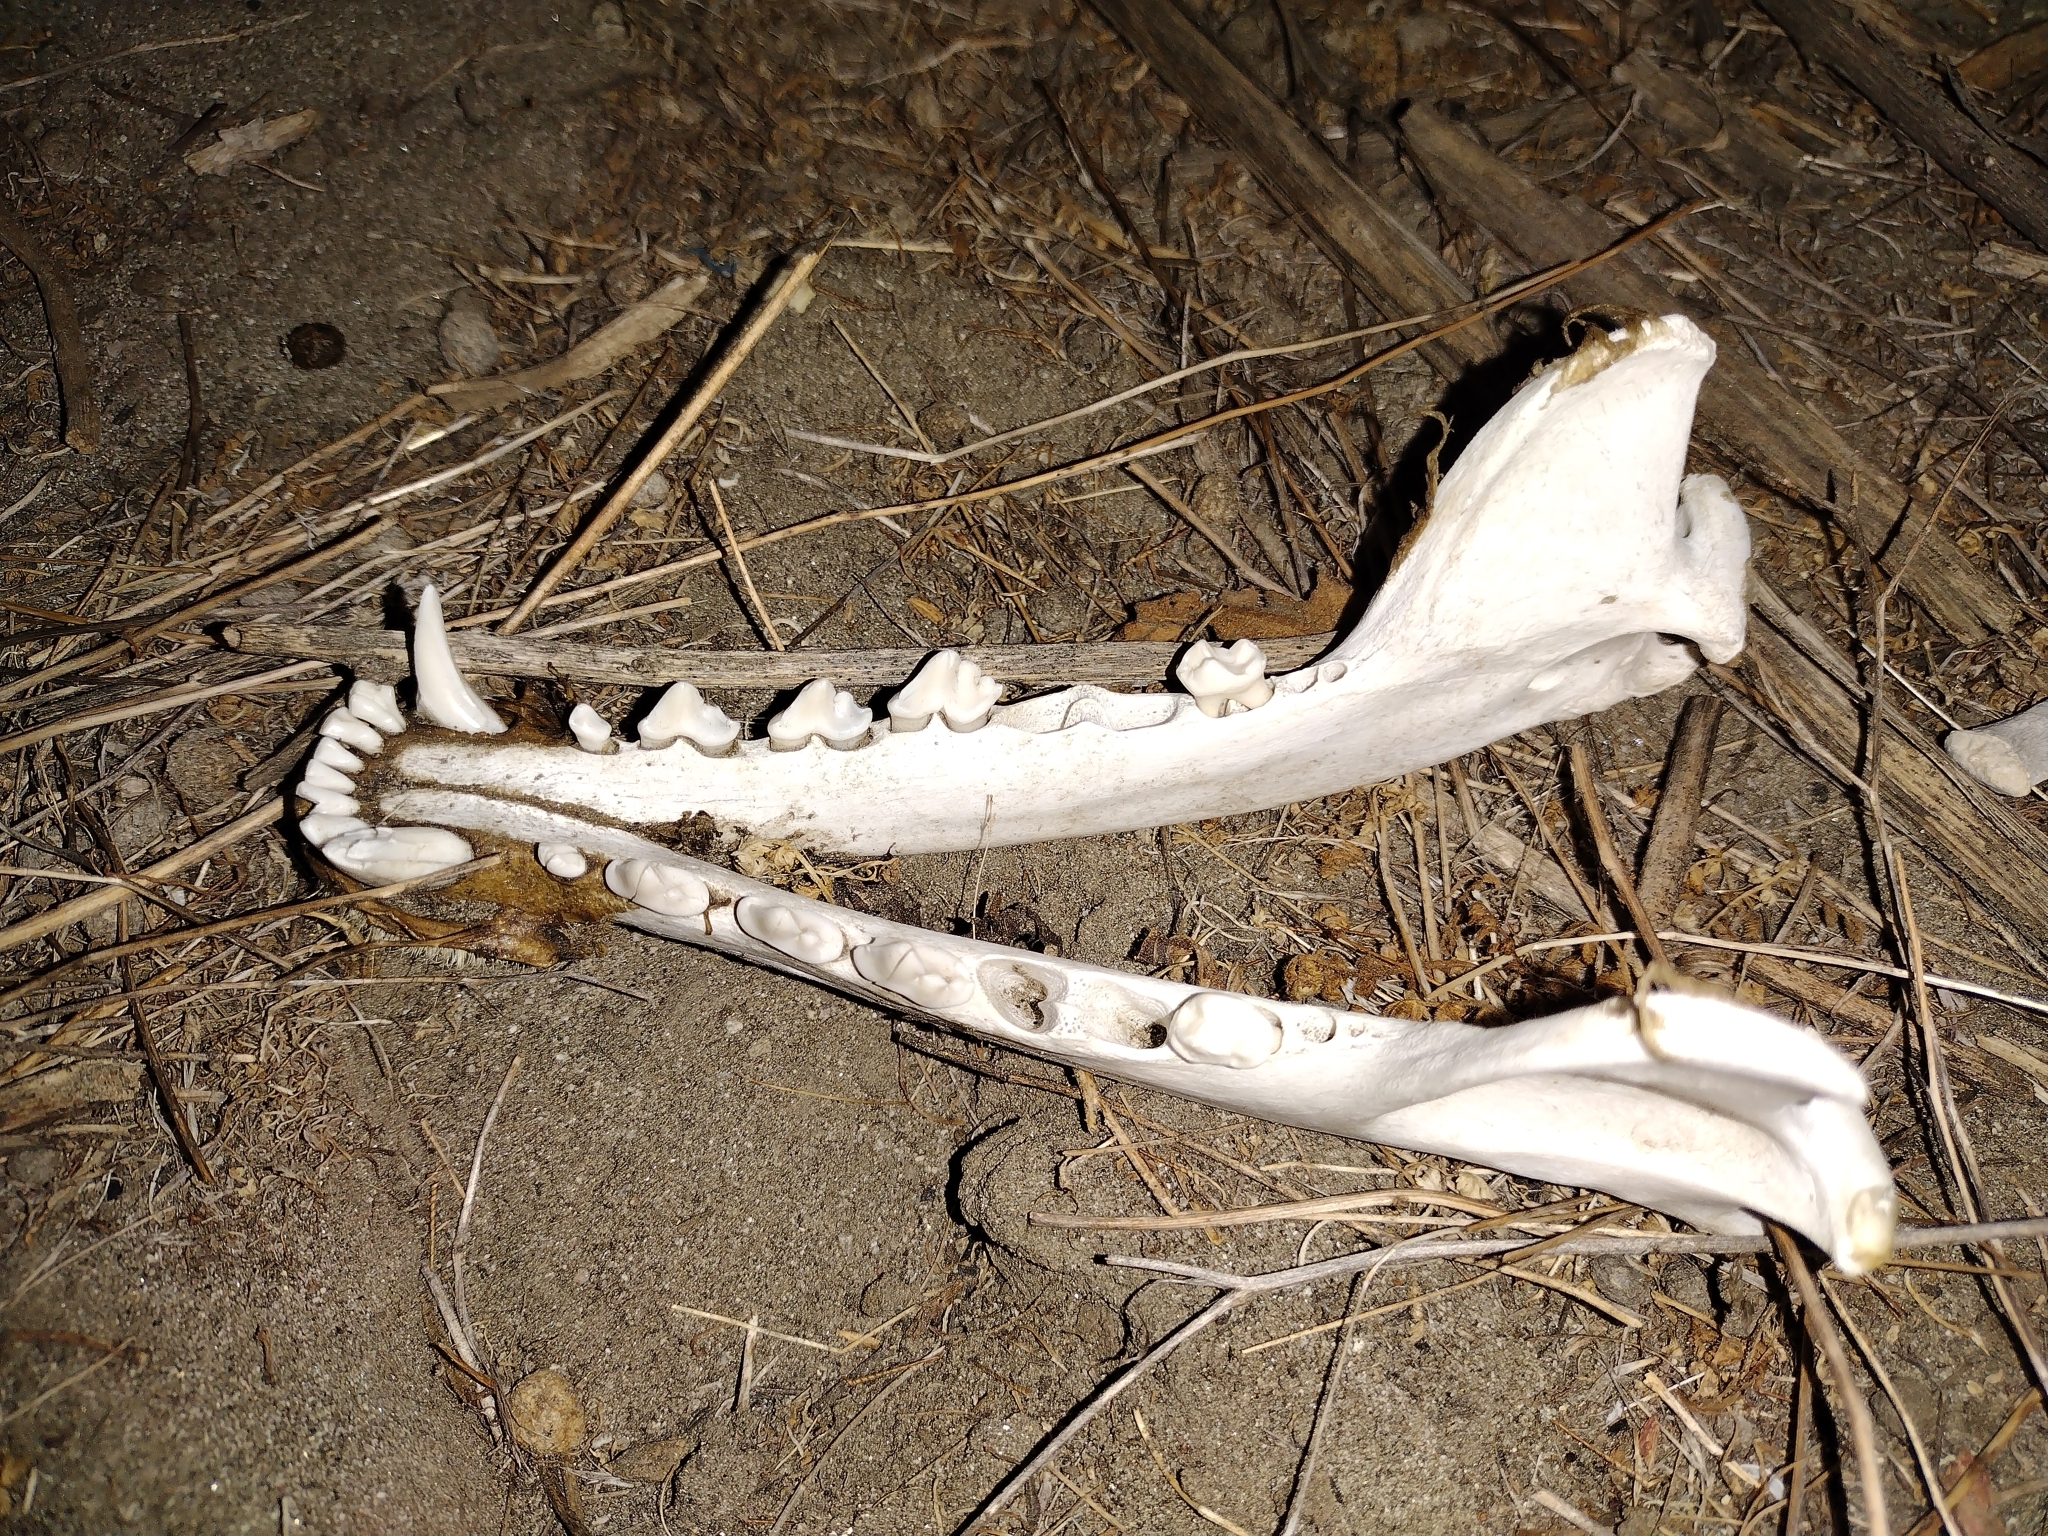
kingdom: Animalia
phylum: Chordata
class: Mammalia
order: Carnivora
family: Canidae
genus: Canis
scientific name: Canis latrans
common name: Coyote
